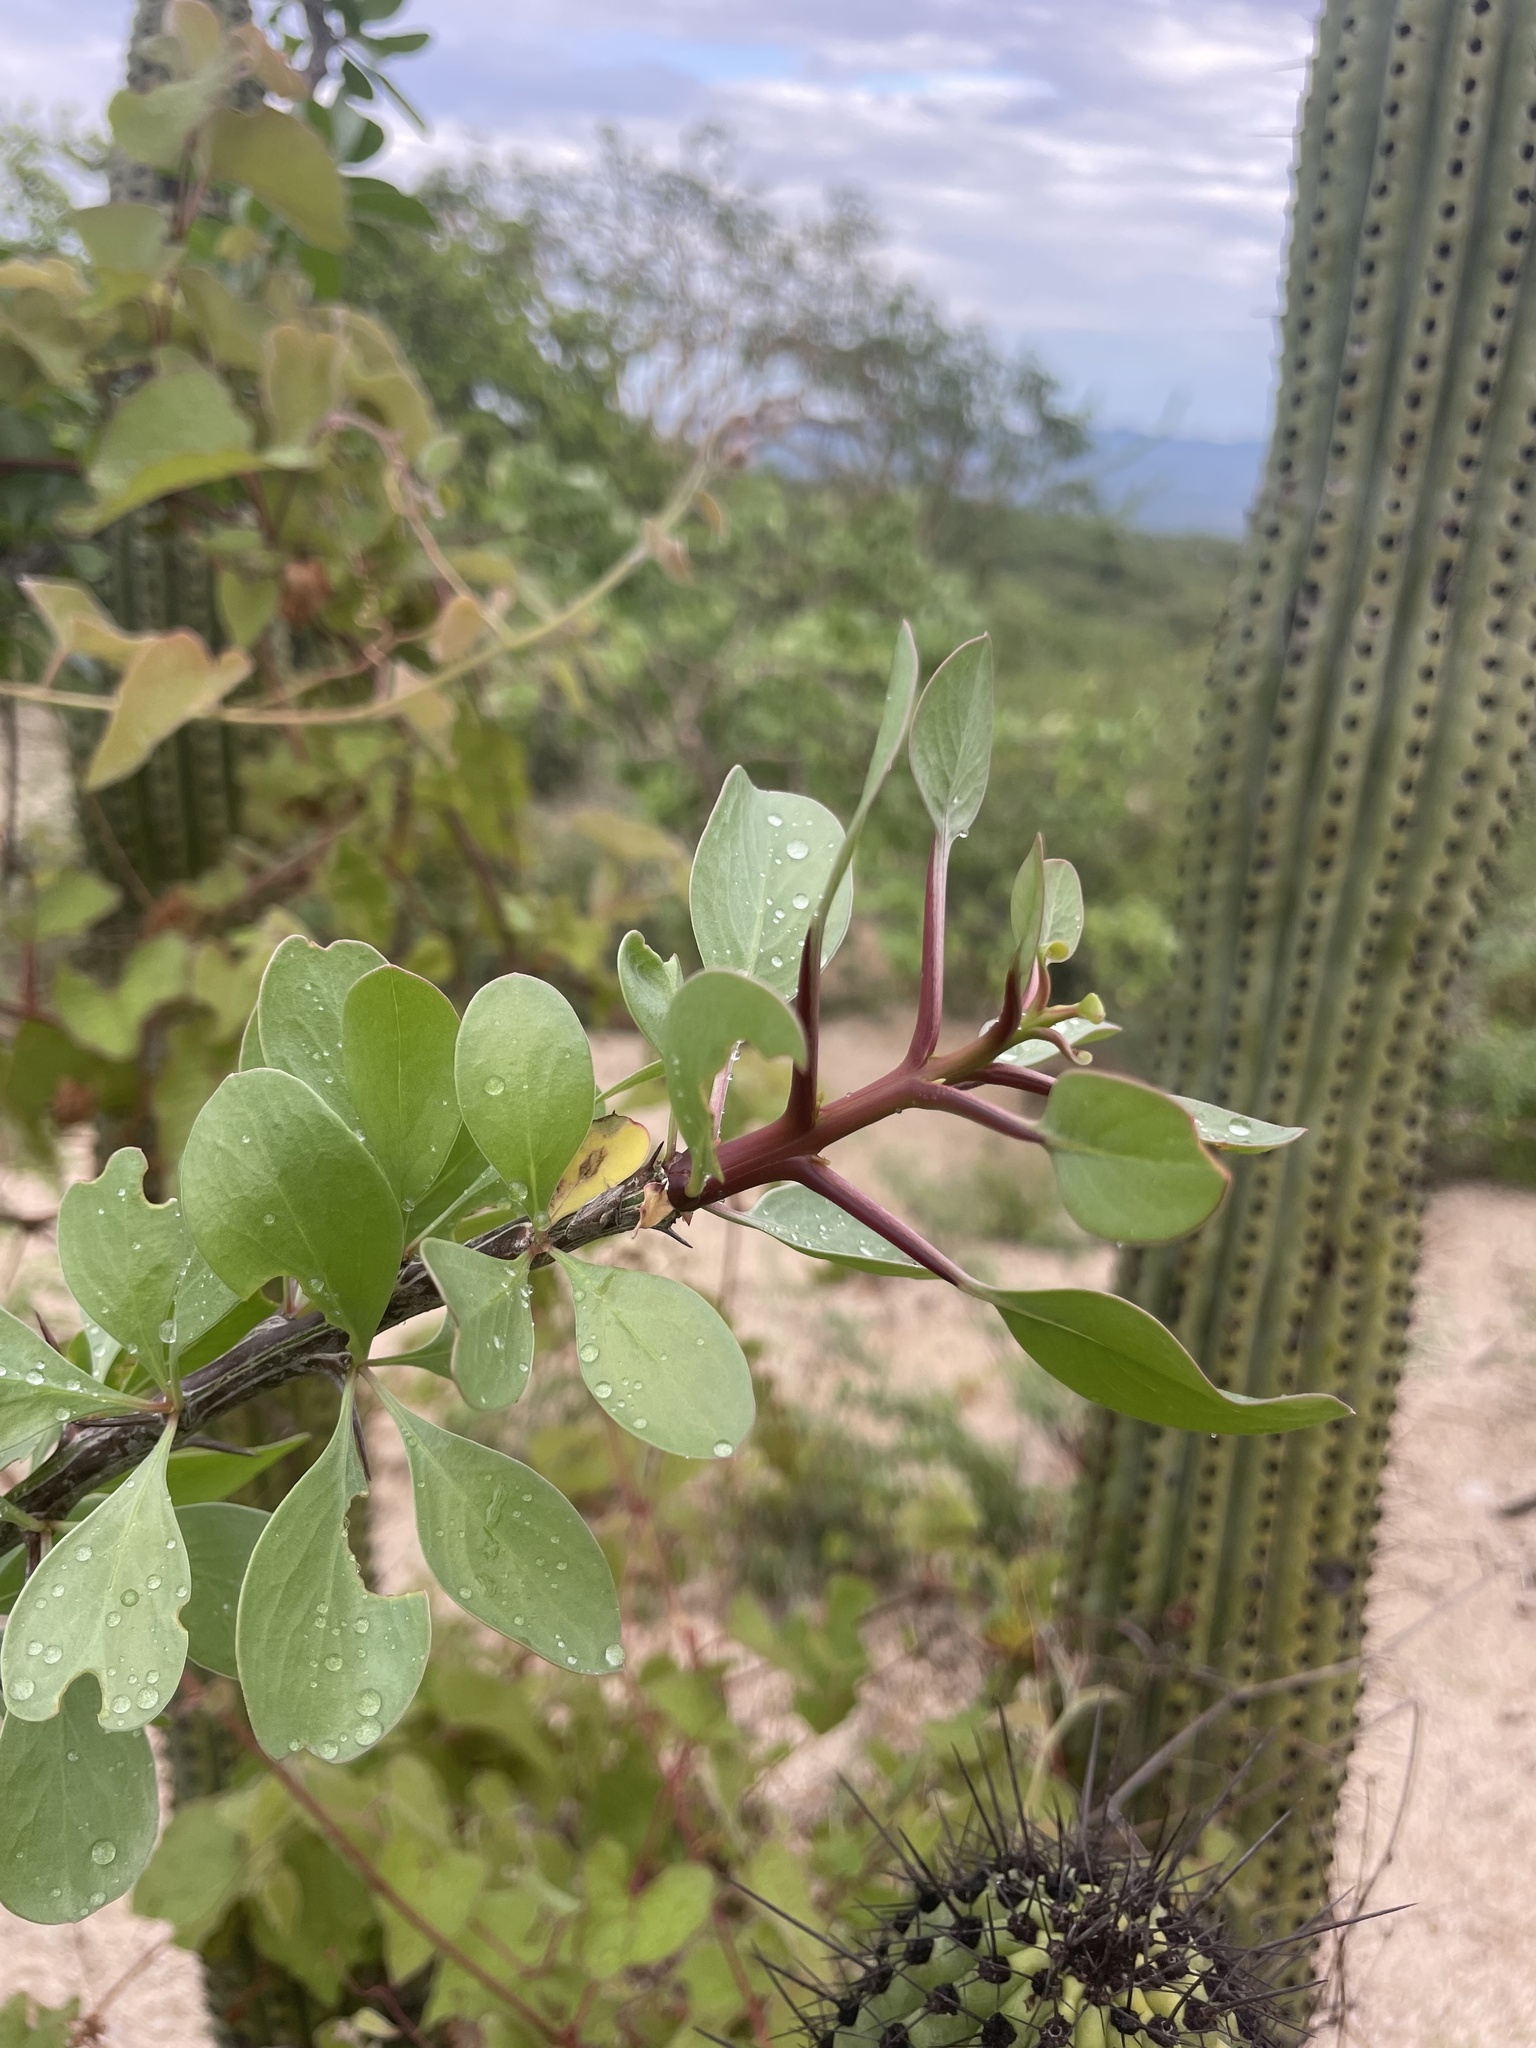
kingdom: Plantae
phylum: Tracheophyta
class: Magnoliopsida
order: Ericales
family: Fouquieriaceae
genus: Fouquieria
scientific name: Fouquieria diguetii
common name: Adam's tree
